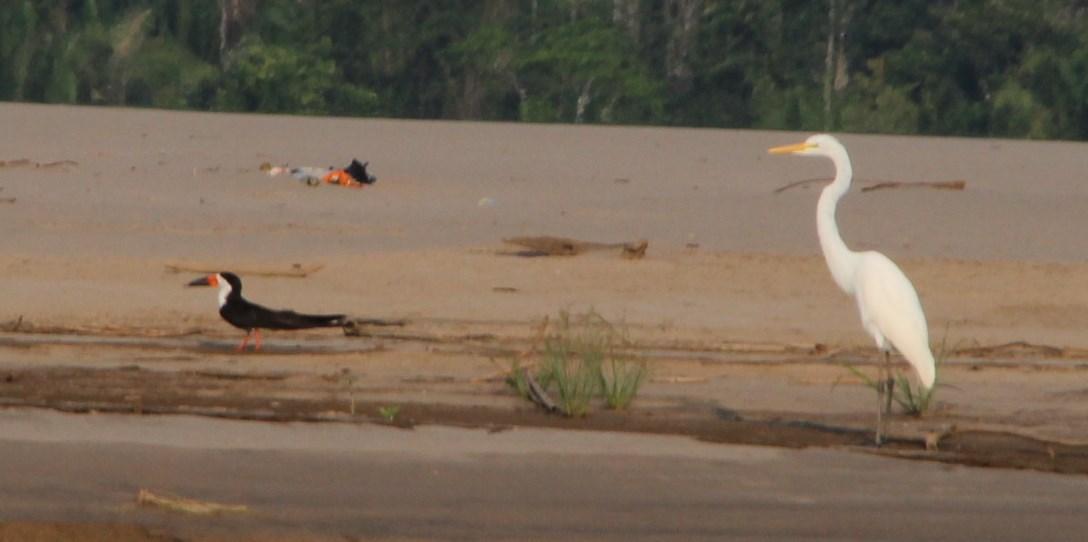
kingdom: Animalia
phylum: Chordata
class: Aves
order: Pelecaniformes
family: Ardeidae
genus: Ardea
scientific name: Ardea alba
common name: Great egret
